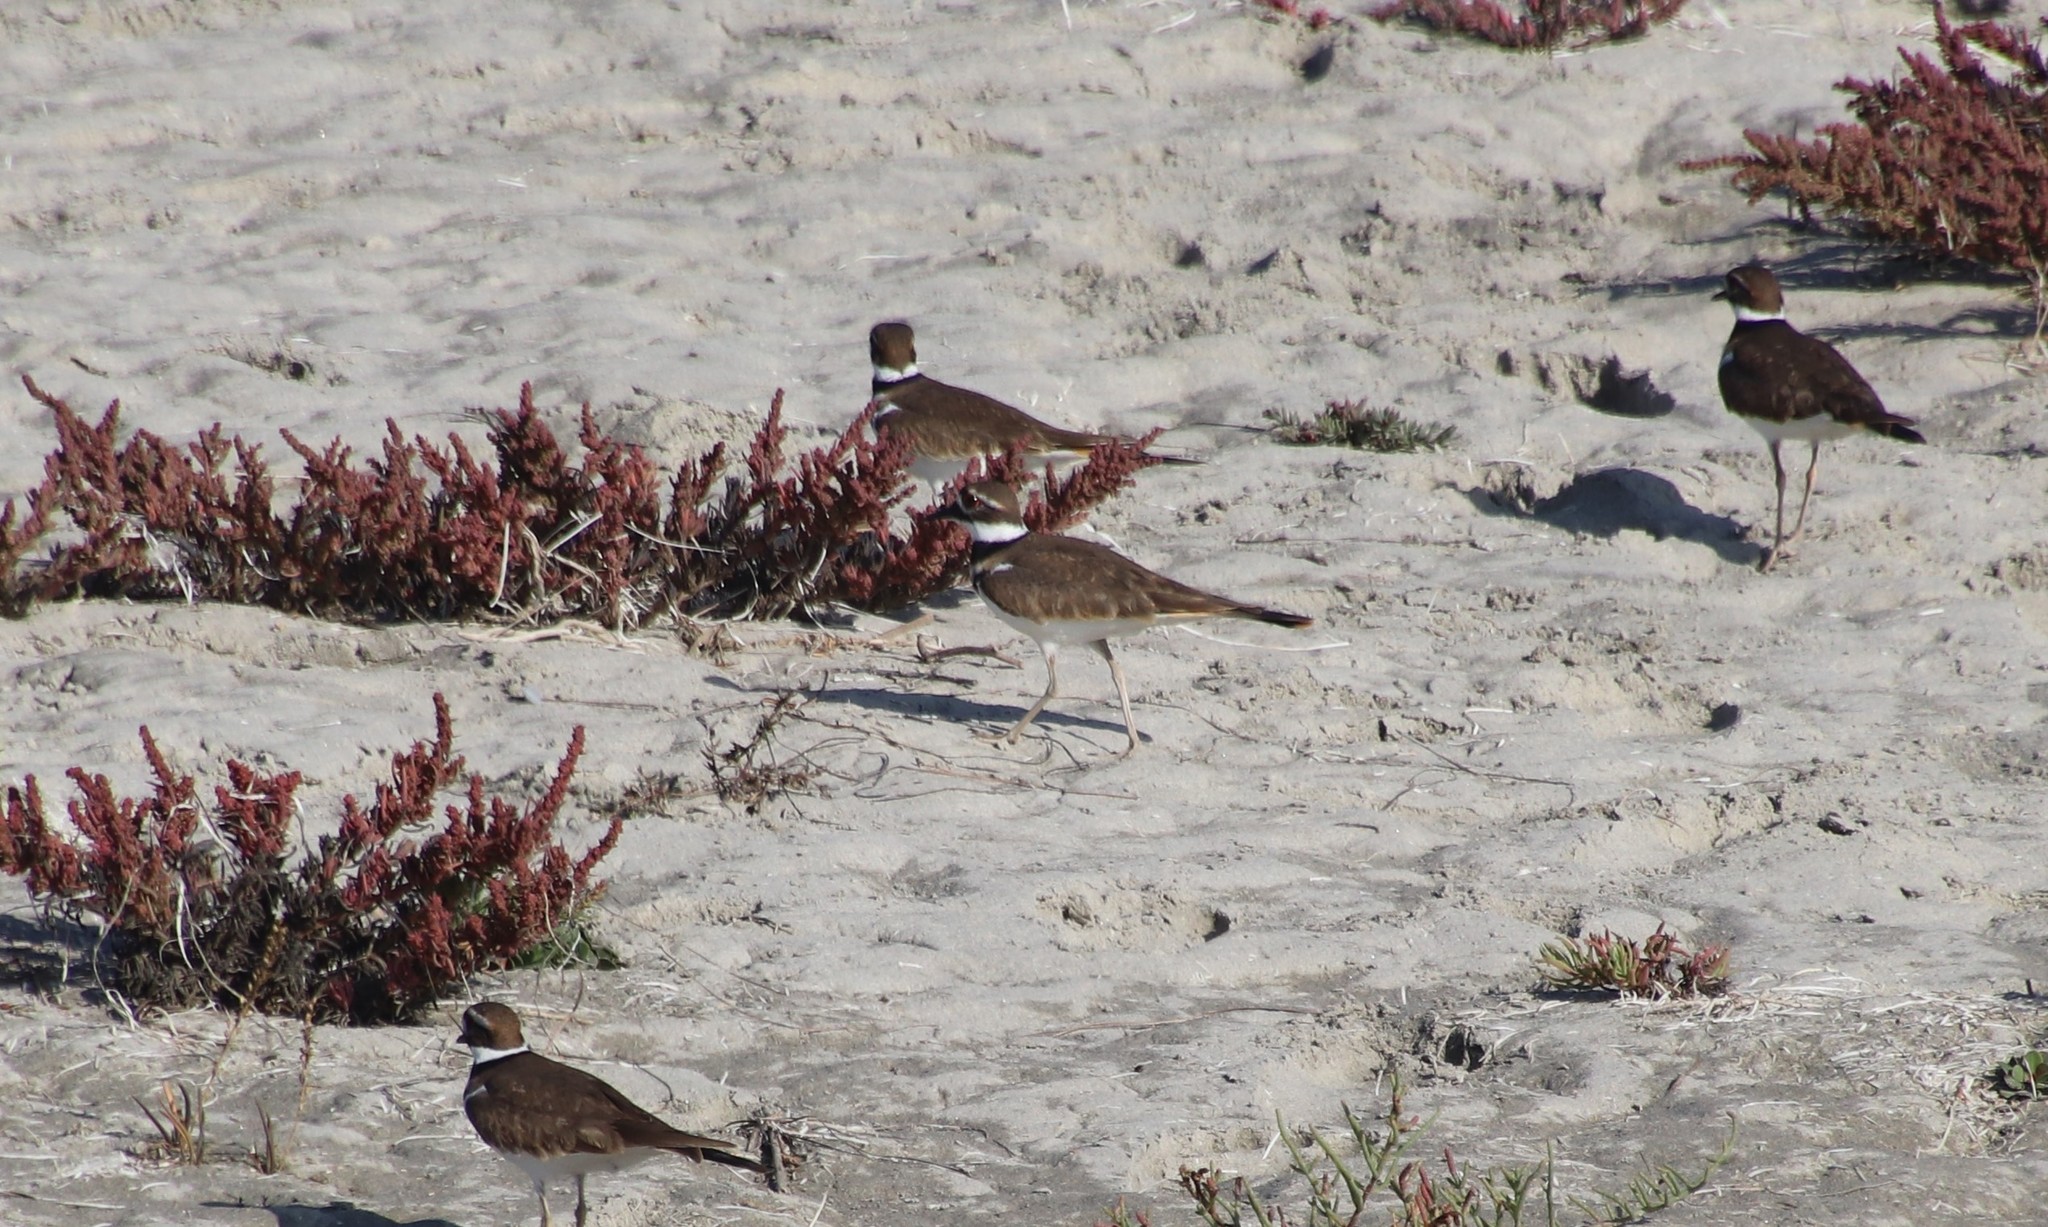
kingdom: Animalia
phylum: Chordata
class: Aves
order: Charadriiformes
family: Charadriidae
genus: Charadrius
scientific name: Charadrius vociferus
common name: Killdeer
